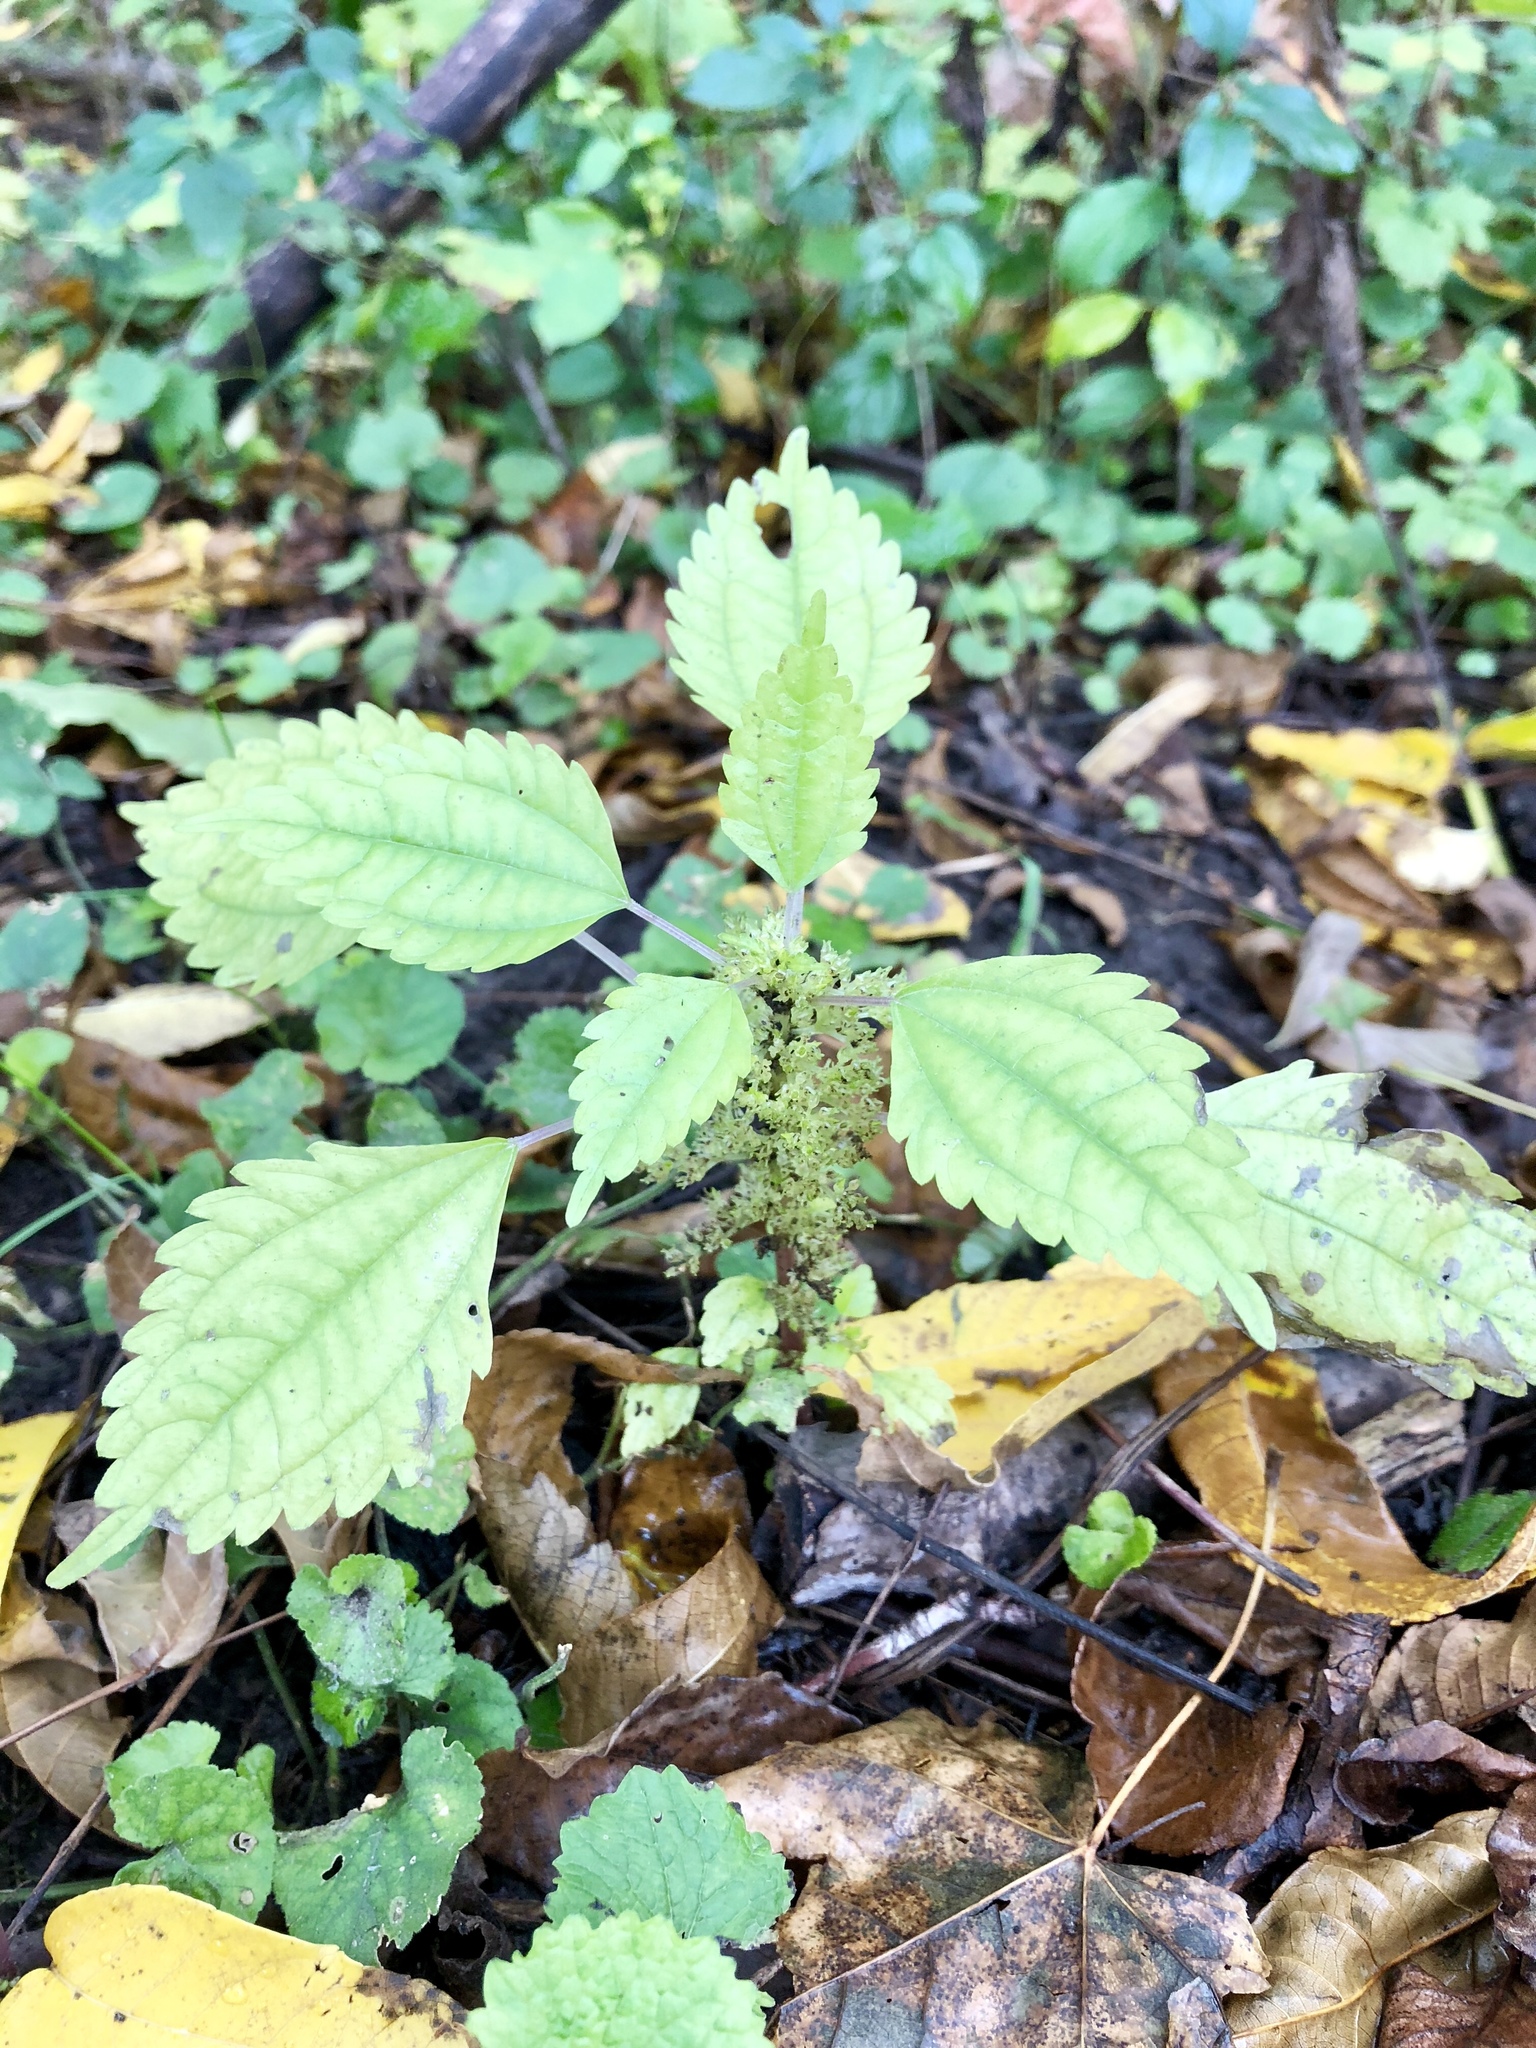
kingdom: Plantae
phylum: Tracheophyta
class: Magnoliopsida
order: Rosales
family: Urticaceae
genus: Pilea
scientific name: Pilea pumila
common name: Clearweed
